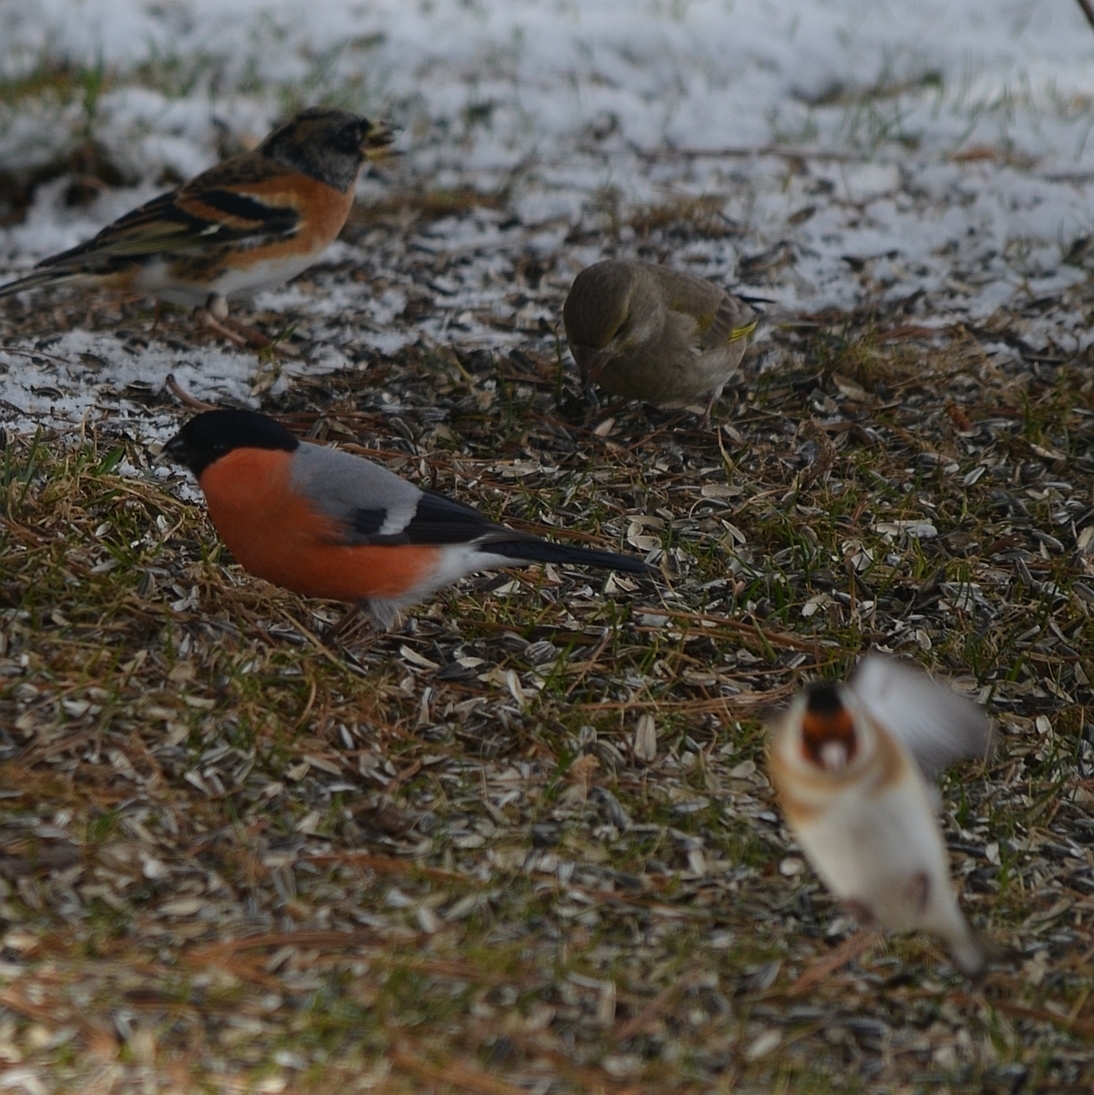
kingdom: Animalia
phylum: Chordata
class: Aves
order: Passeriformes
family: Fringillidae
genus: Pyrrhula
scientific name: Pyrrhula pyrrhula
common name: Eurasian bullfinch
